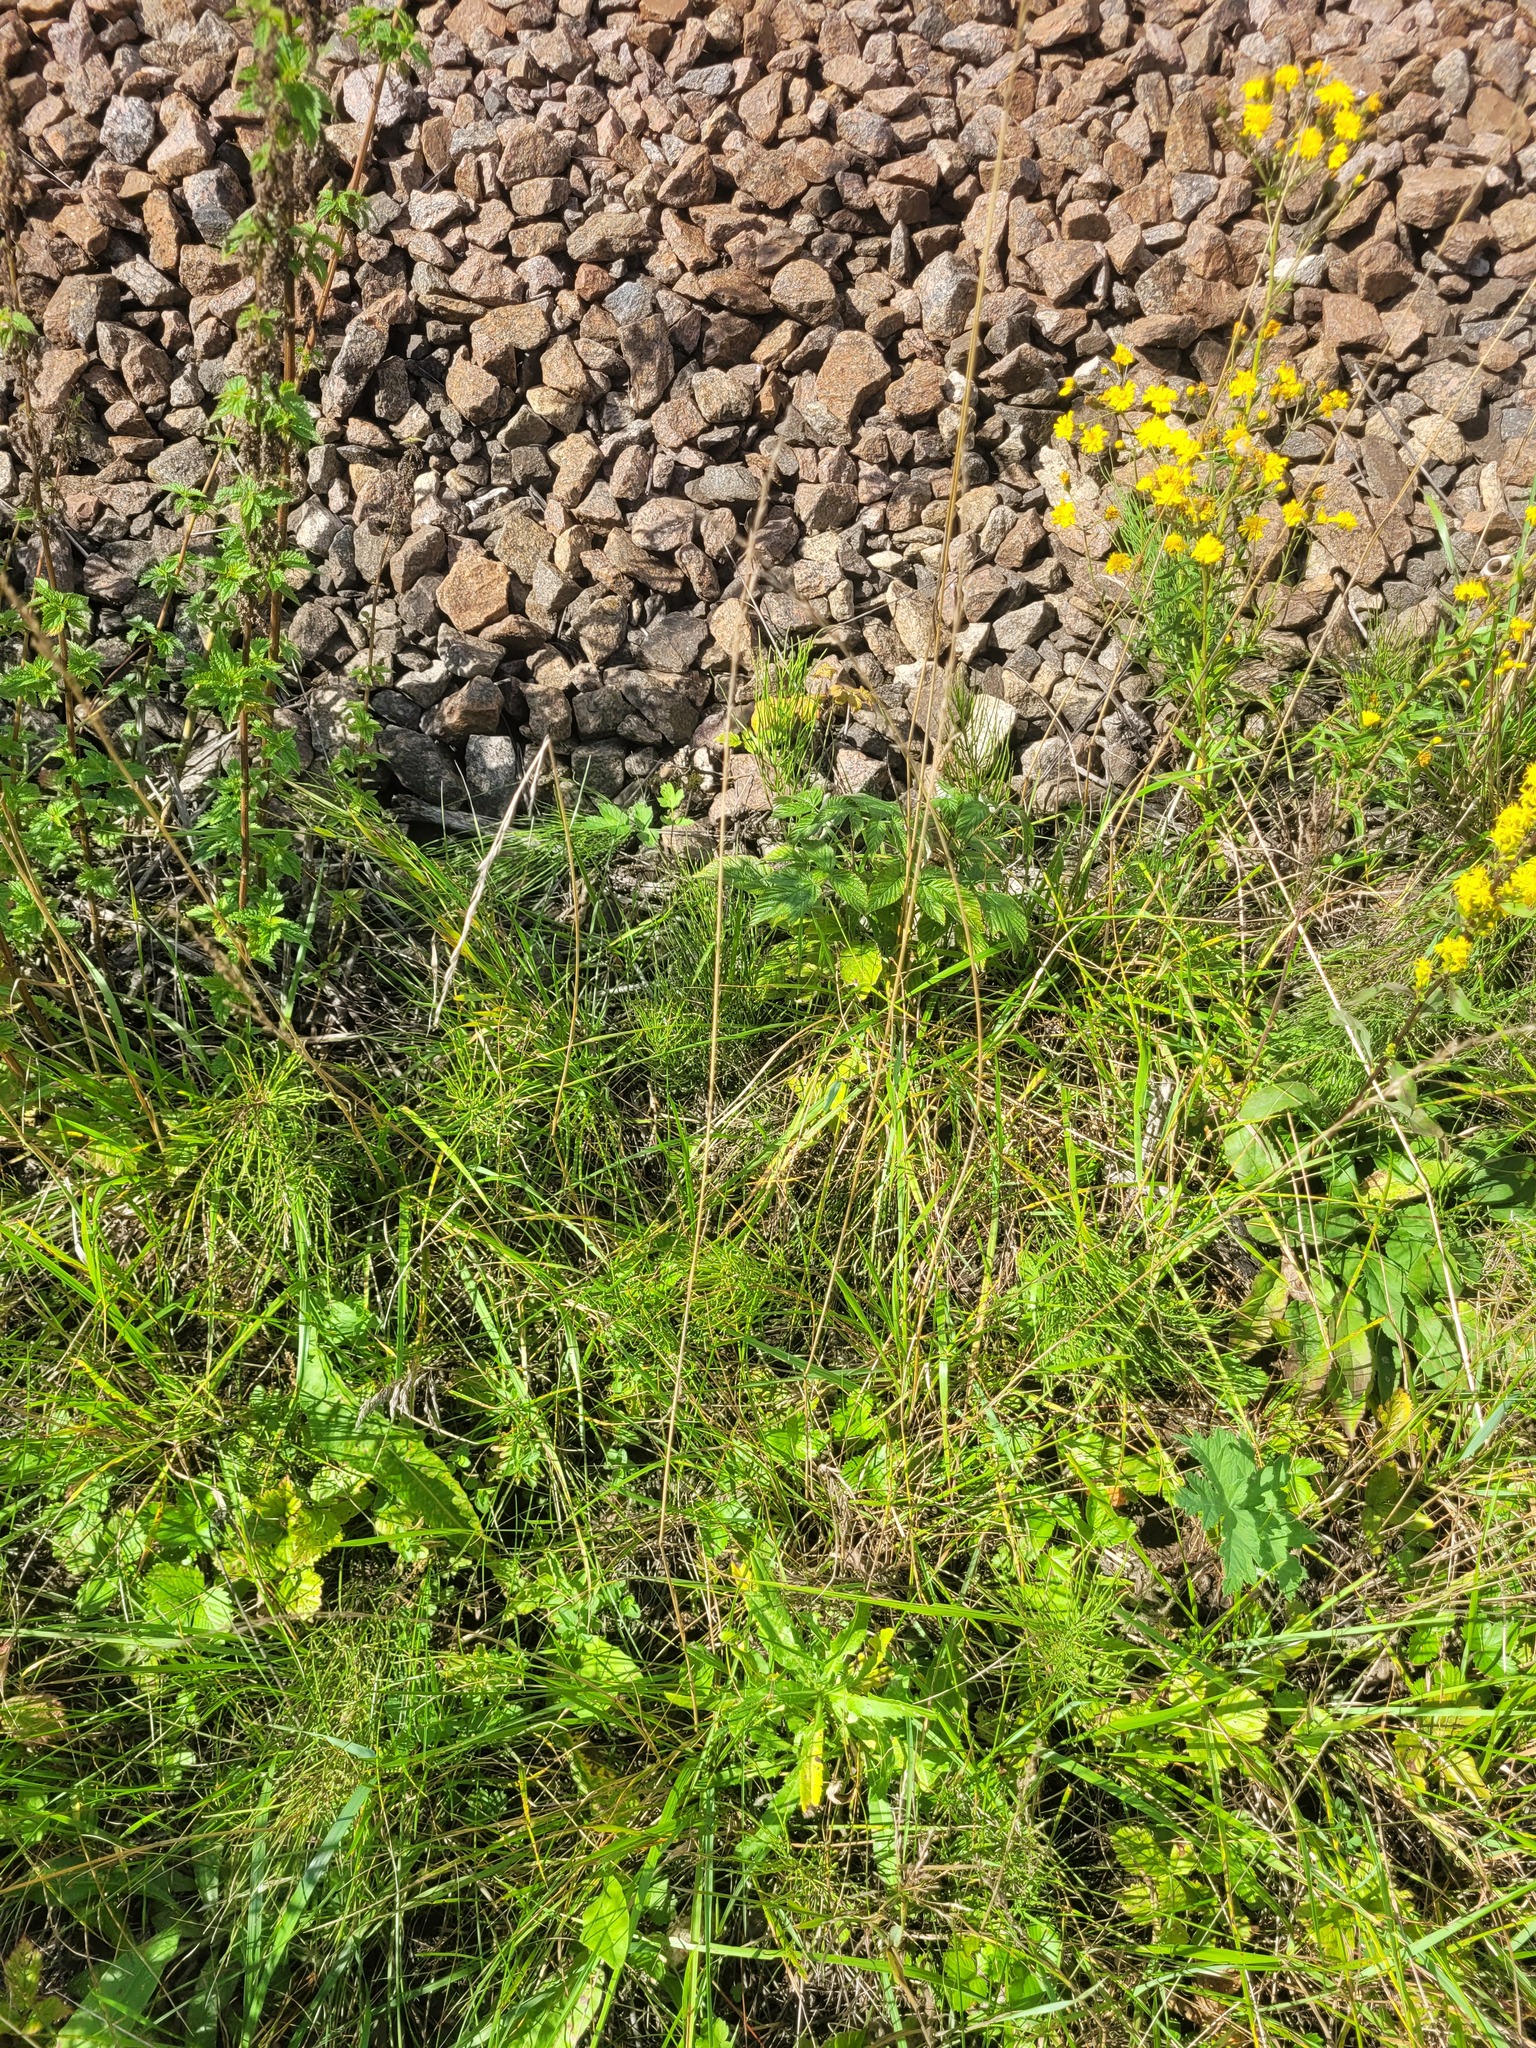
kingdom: Plantae
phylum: Tracheophyta
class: Liliopsida
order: Poales
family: Poaceae
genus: Lolium
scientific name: Lolium pratense
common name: Dover grass
